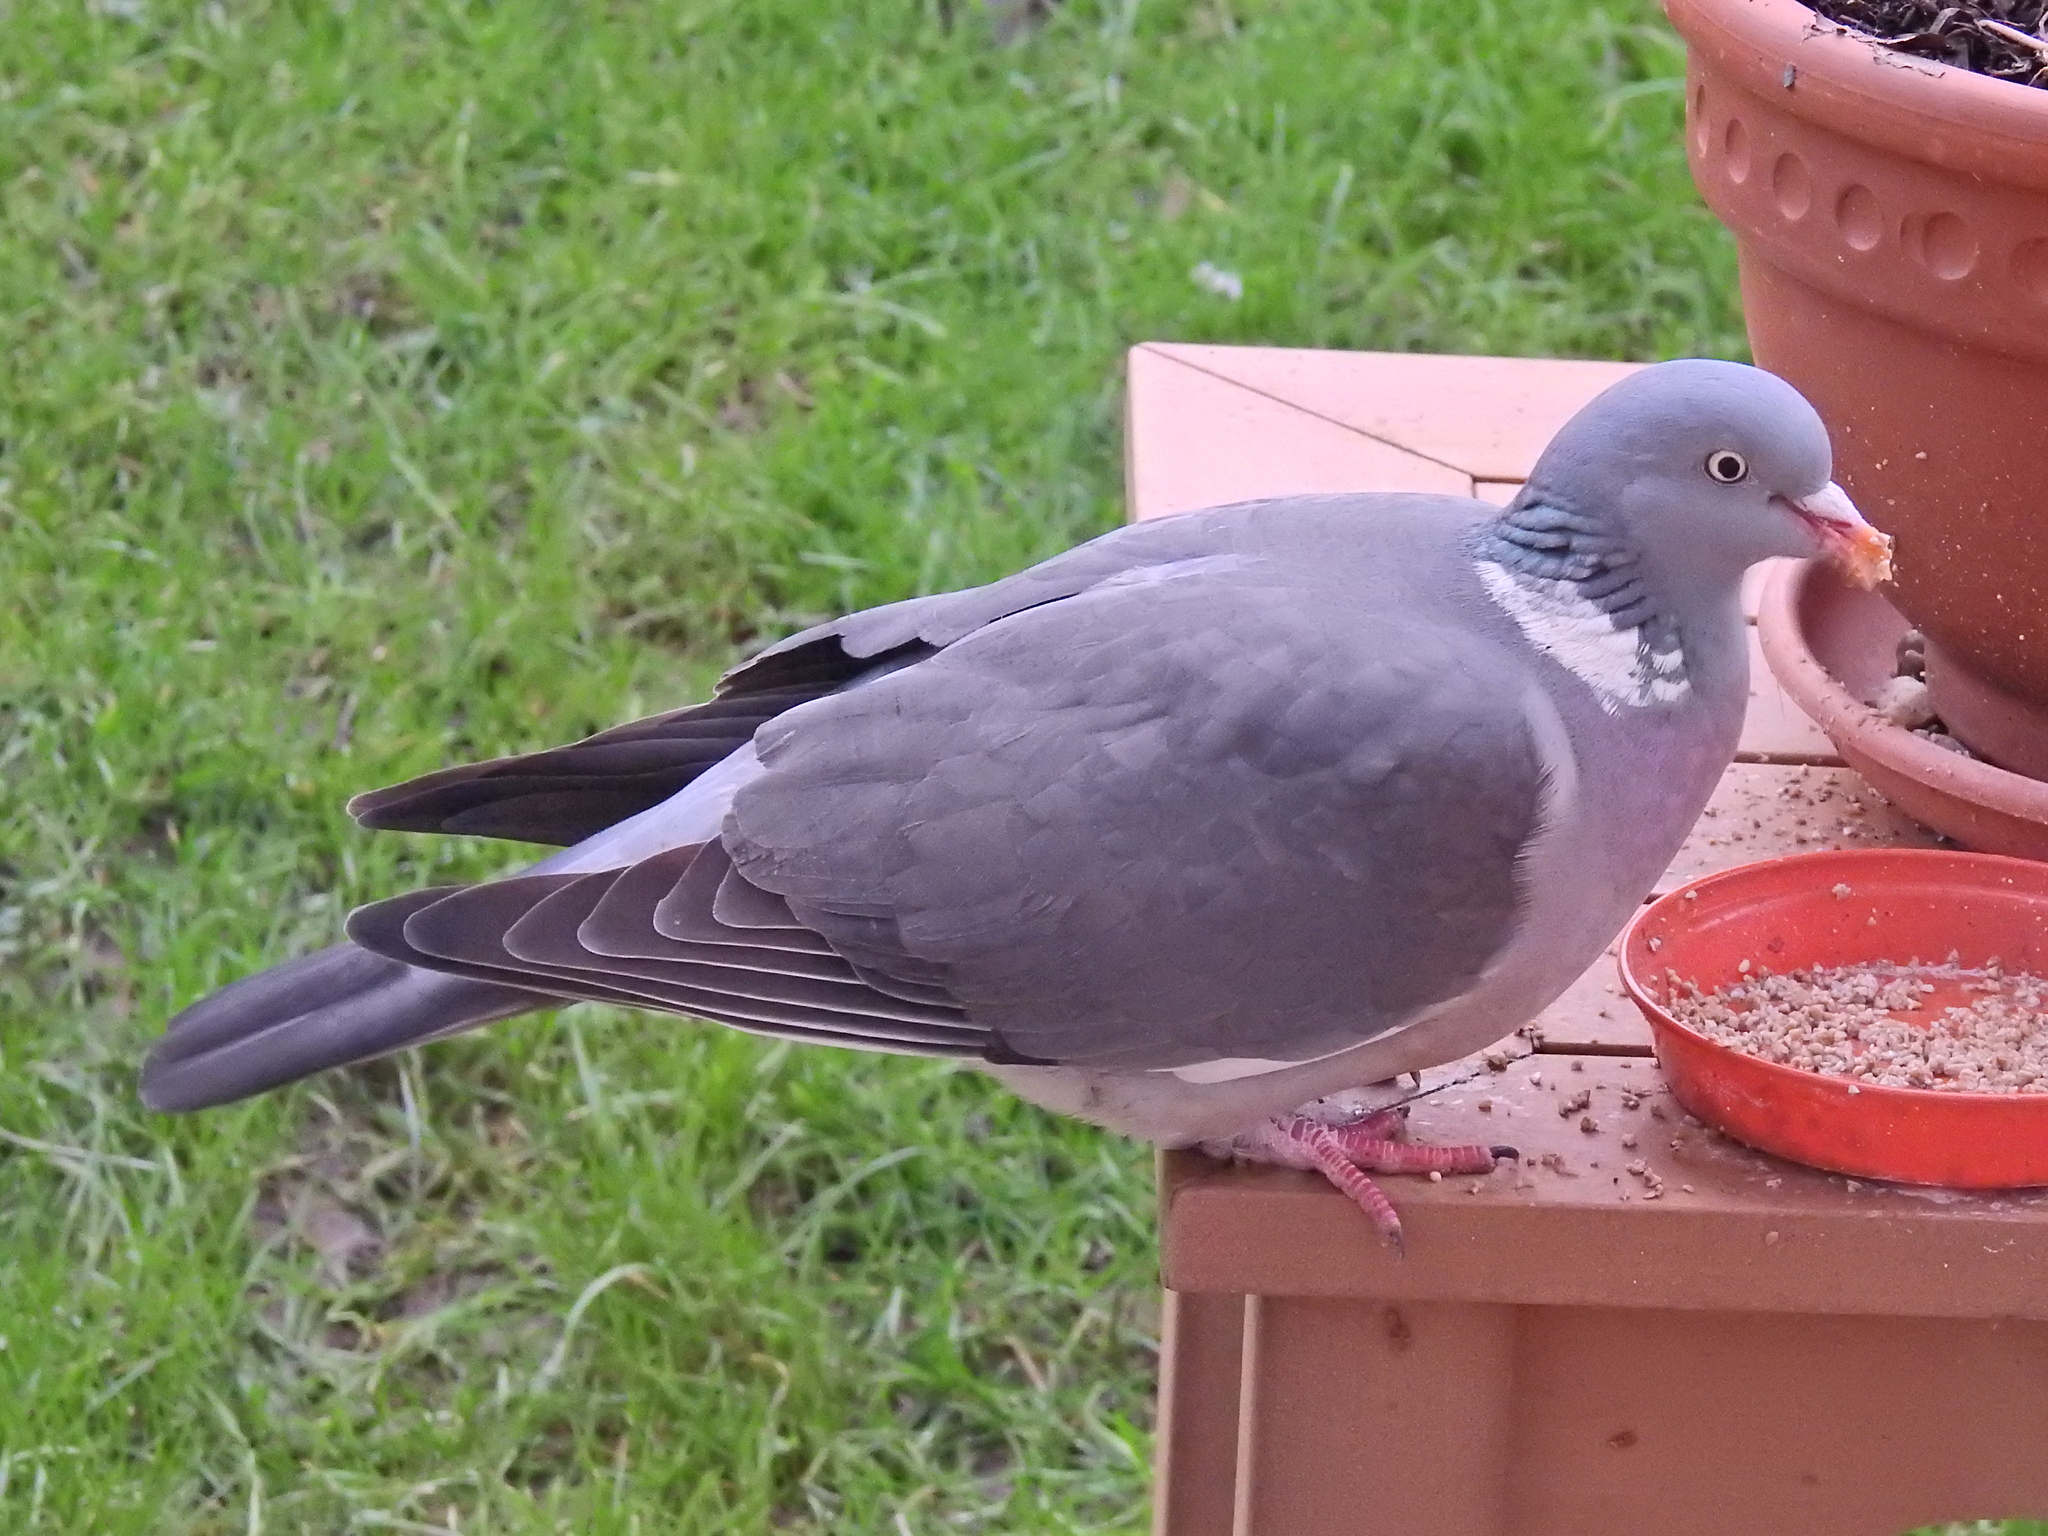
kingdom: Animalia
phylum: Chordata
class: Aves
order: Columbiformes
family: Columbidae
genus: Columba
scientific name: Columba palumbus
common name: Common wood pigeon
